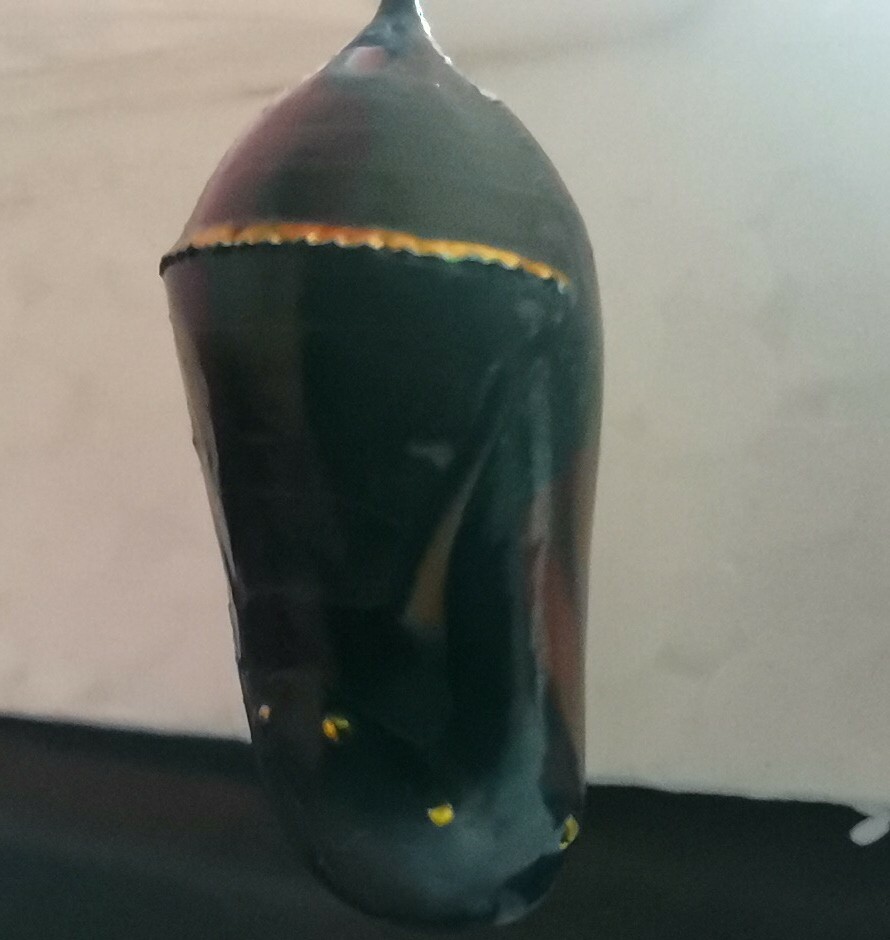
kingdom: Animalia
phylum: Arthropoda
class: Insecta
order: Lepidoptera
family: Nymphalidae
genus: Danaus
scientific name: Danaus plexippus
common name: Monarch
